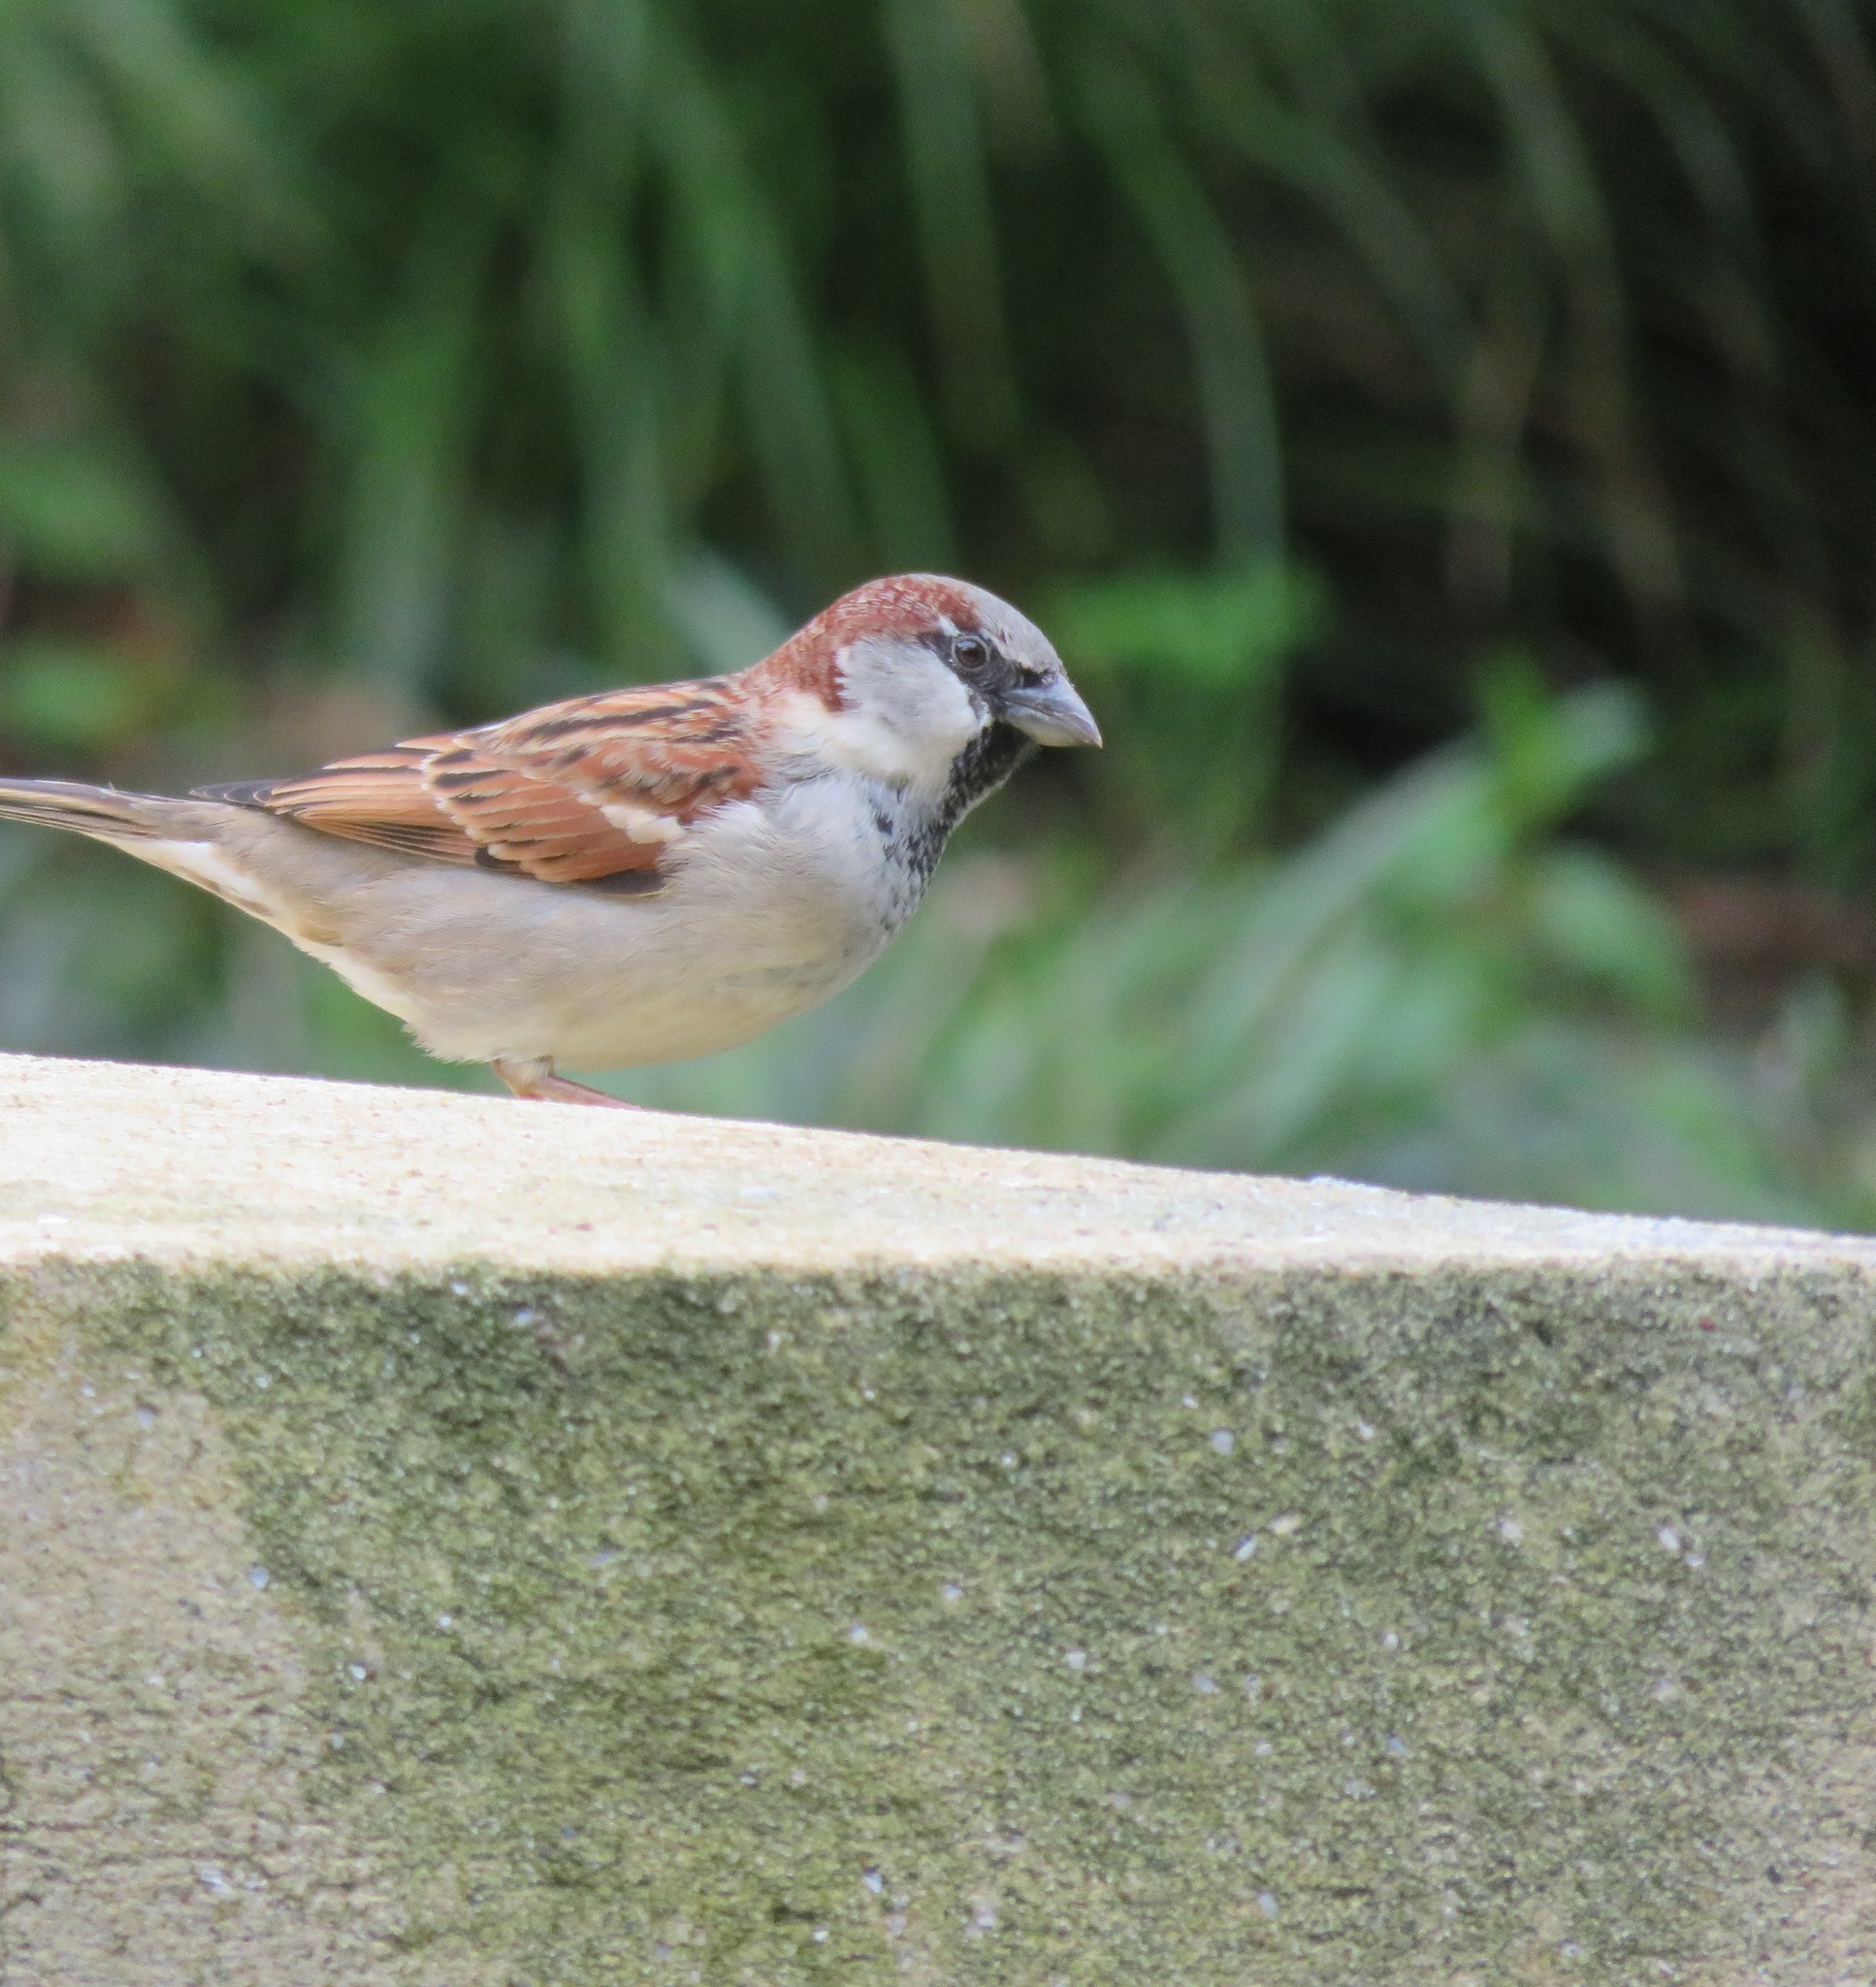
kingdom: Animalia
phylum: Chordata
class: Aves
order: Passeriformes
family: Passeridae
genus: Passer
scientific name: Passer domesticus
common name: House sparrow
